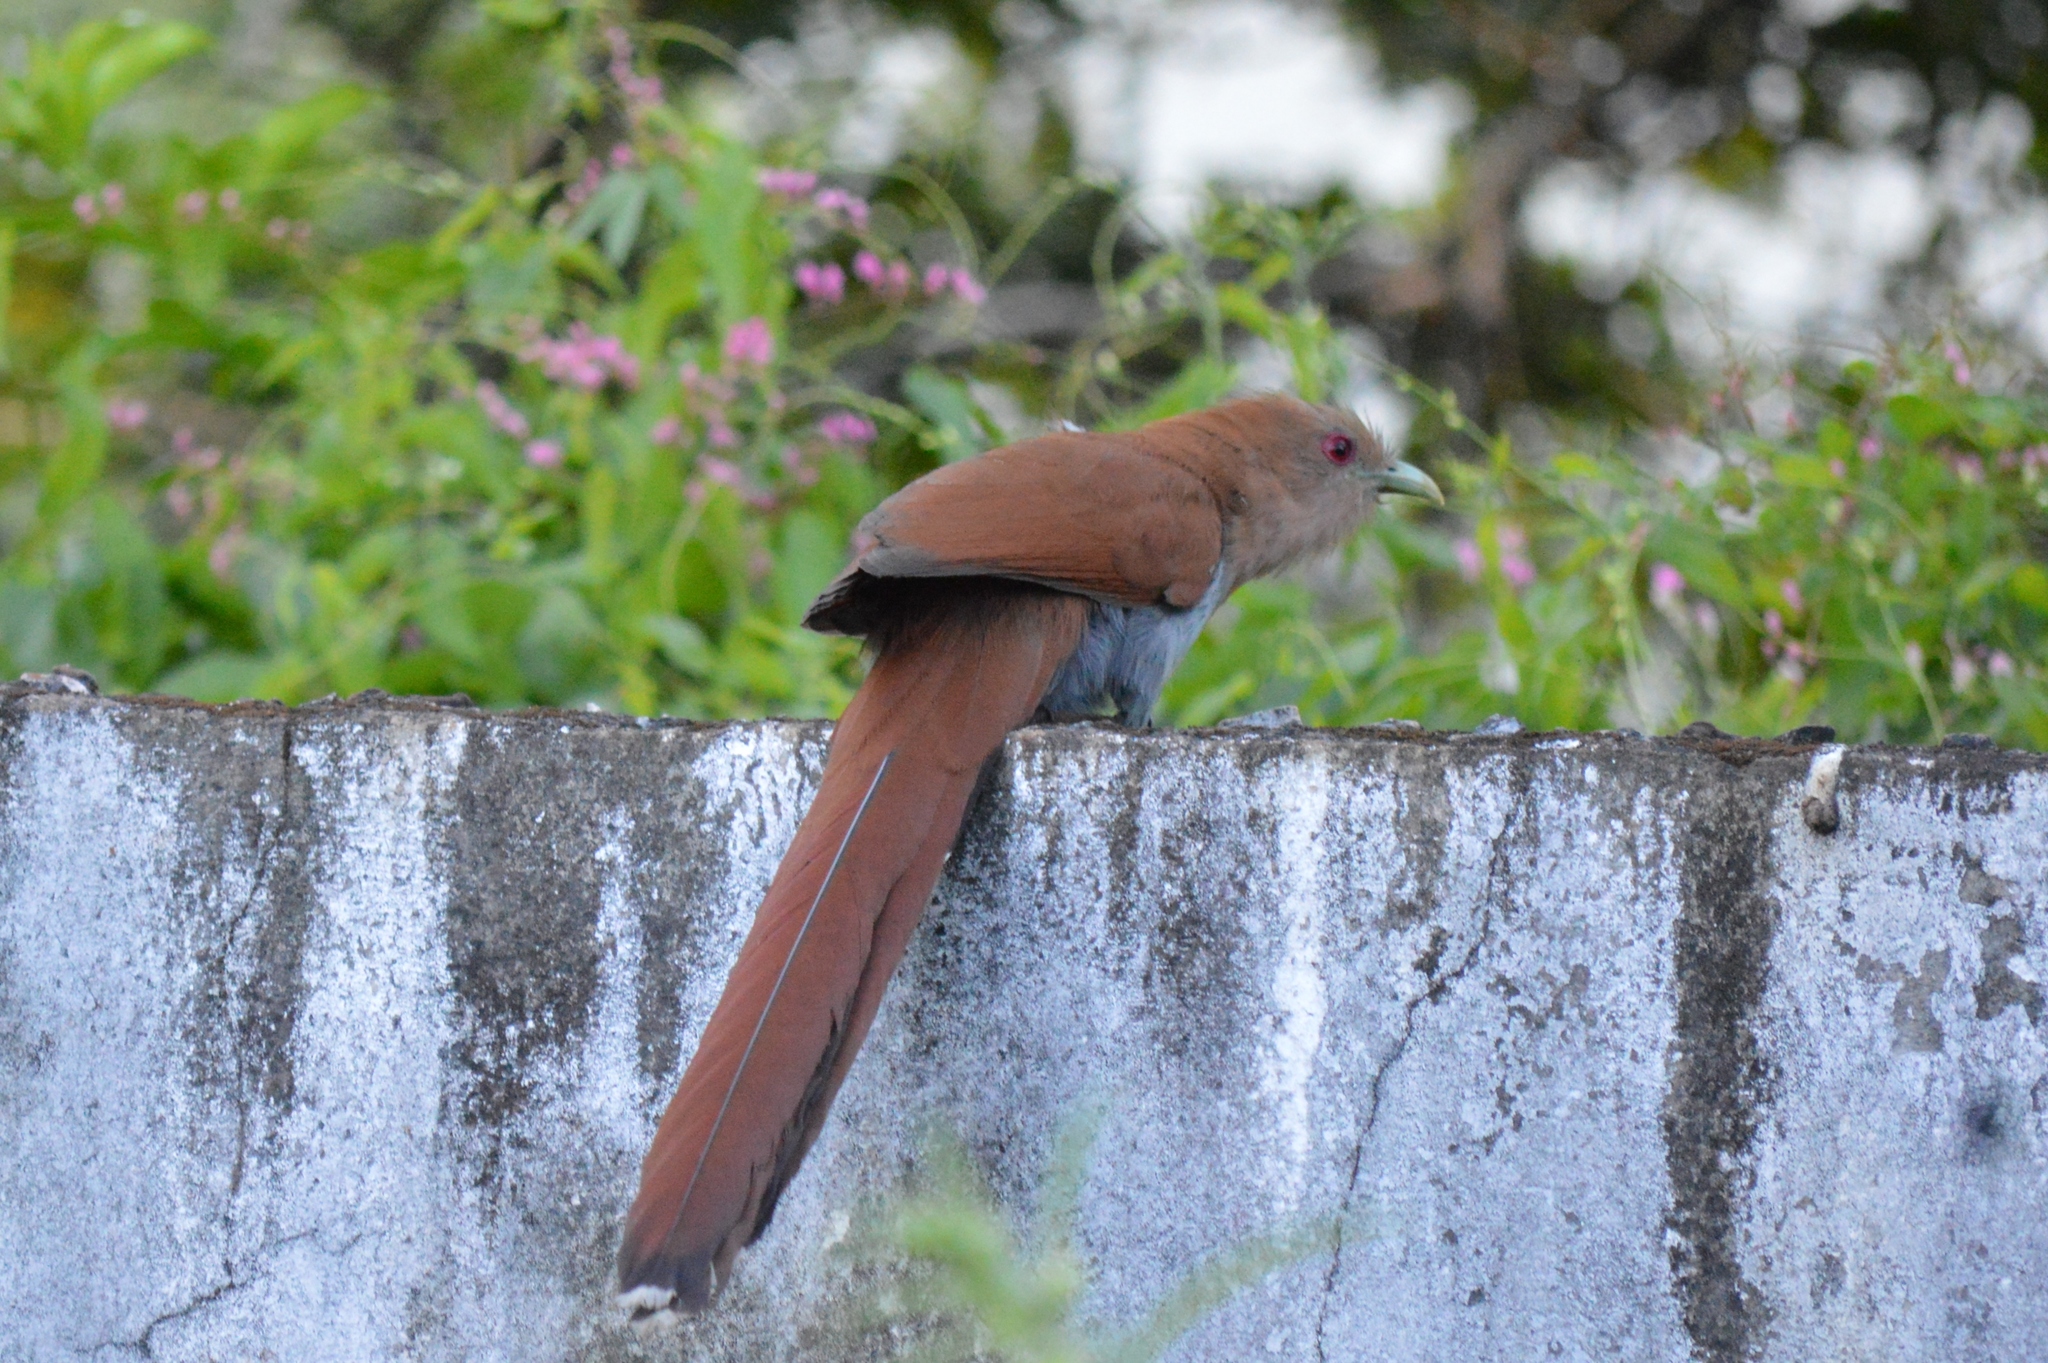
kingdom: Animalia
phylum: Chordata
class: Aves
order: Cuculiformes
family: Cuculidae
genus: Piaya
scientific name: Piaya cayana
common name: Squirrel cuckoo
